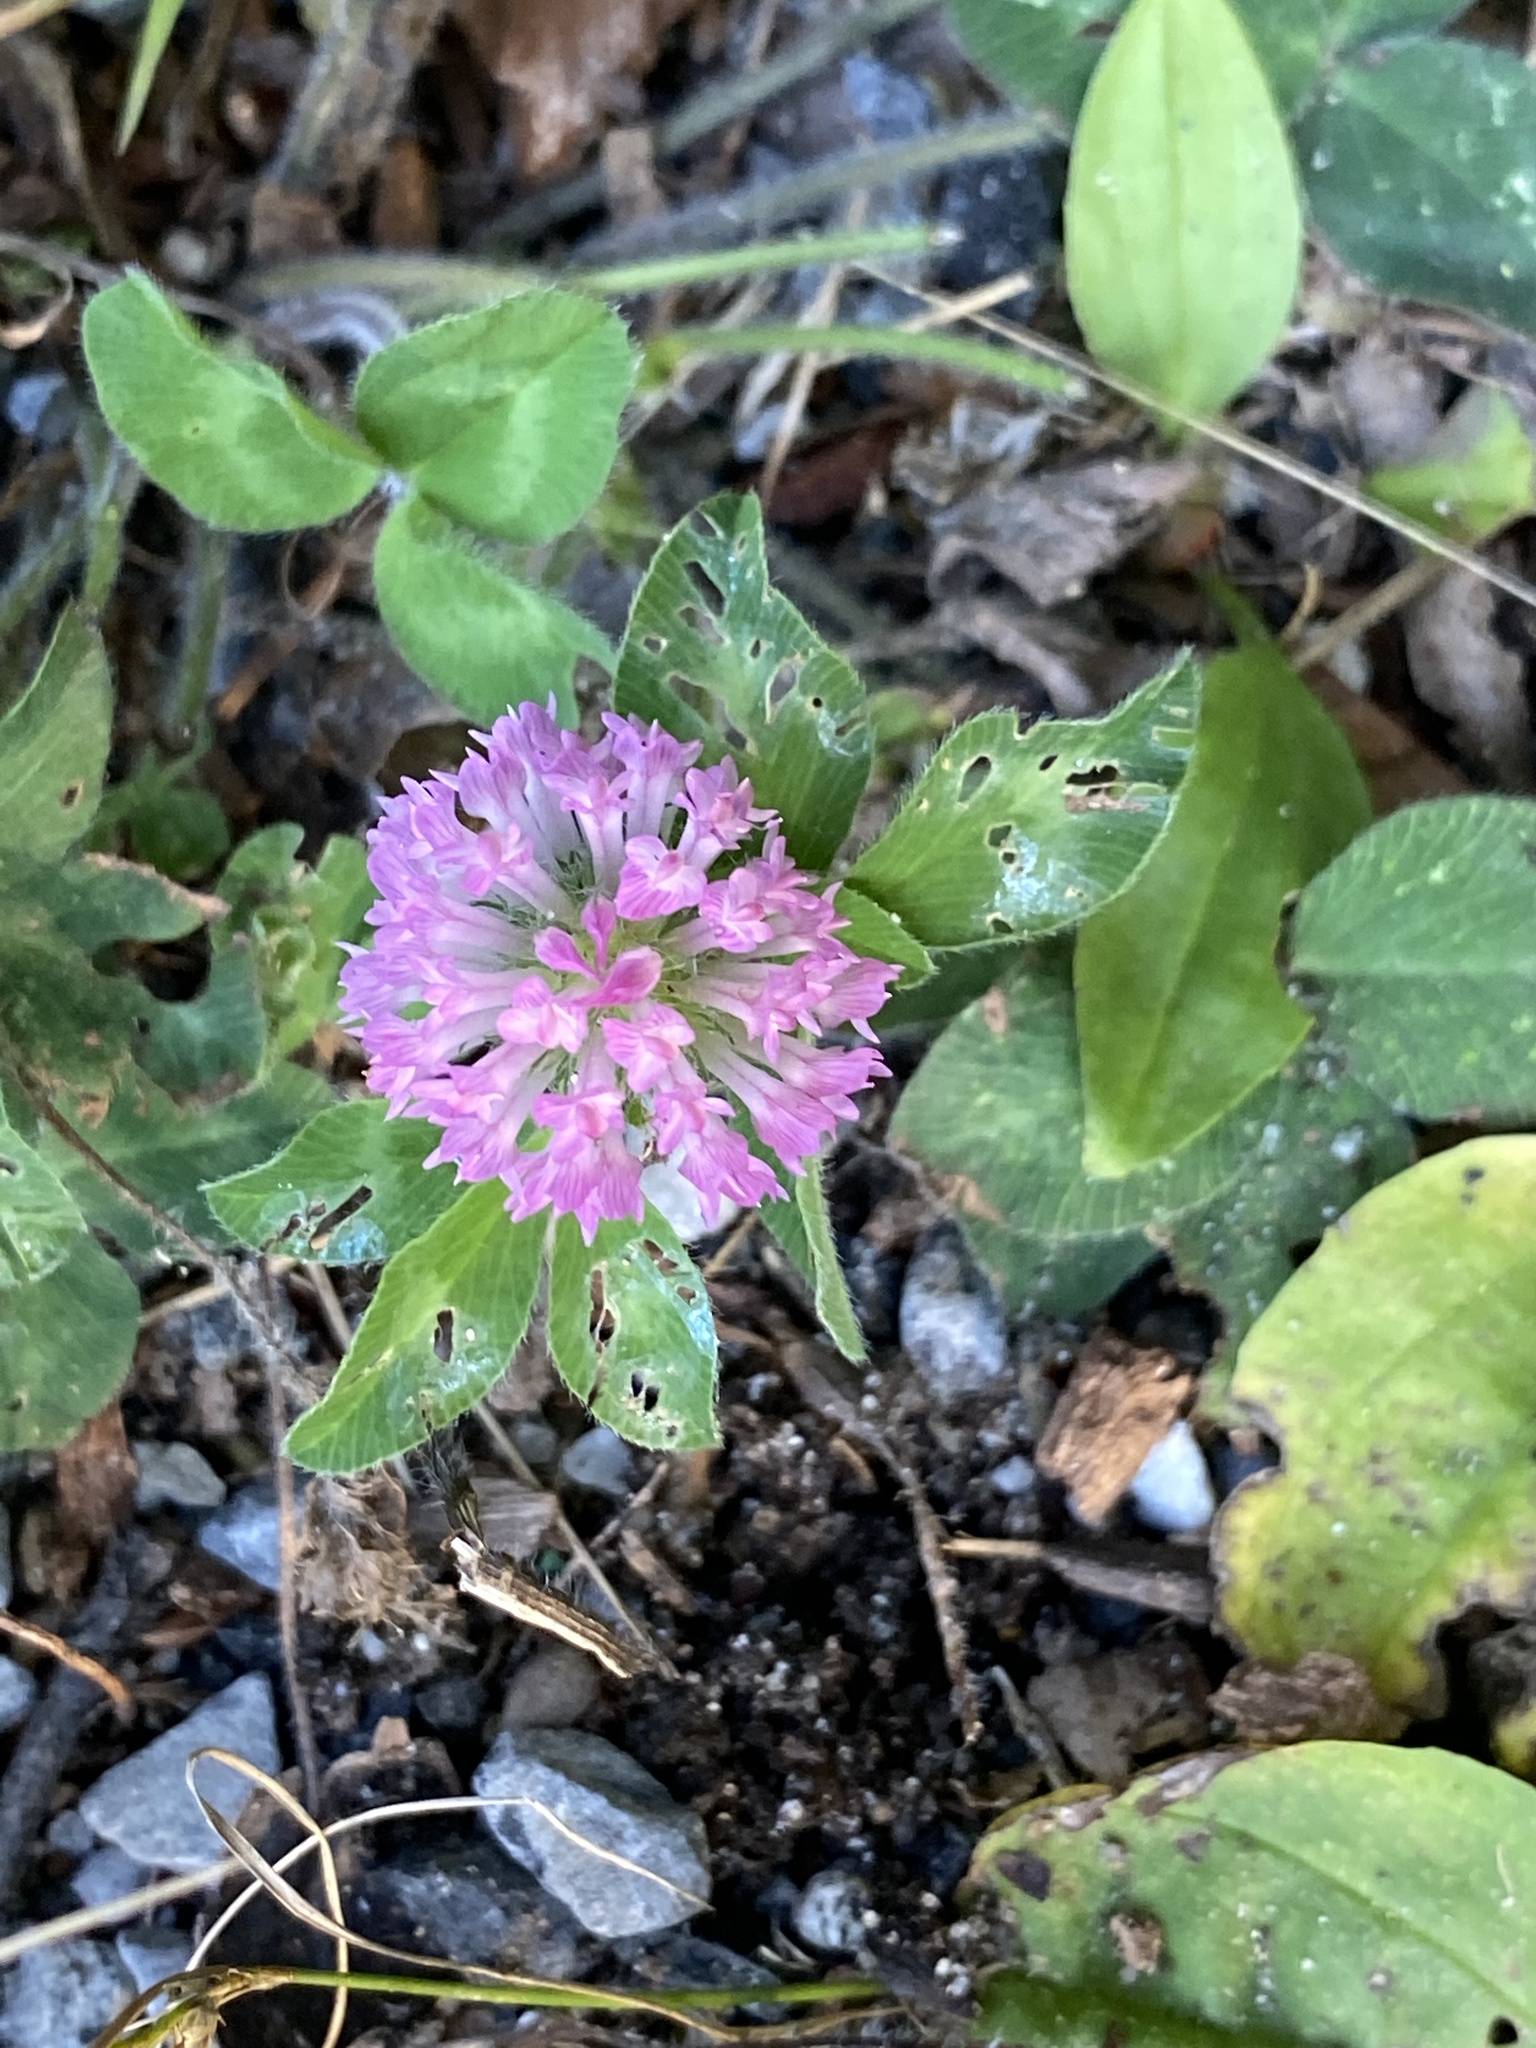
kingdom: Plantae
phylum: Tracheophyta
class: Magnoliopsida
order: Fabales
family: Fabaceae
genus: Trifolium
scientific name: Trifolium pratense
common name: Red clover
